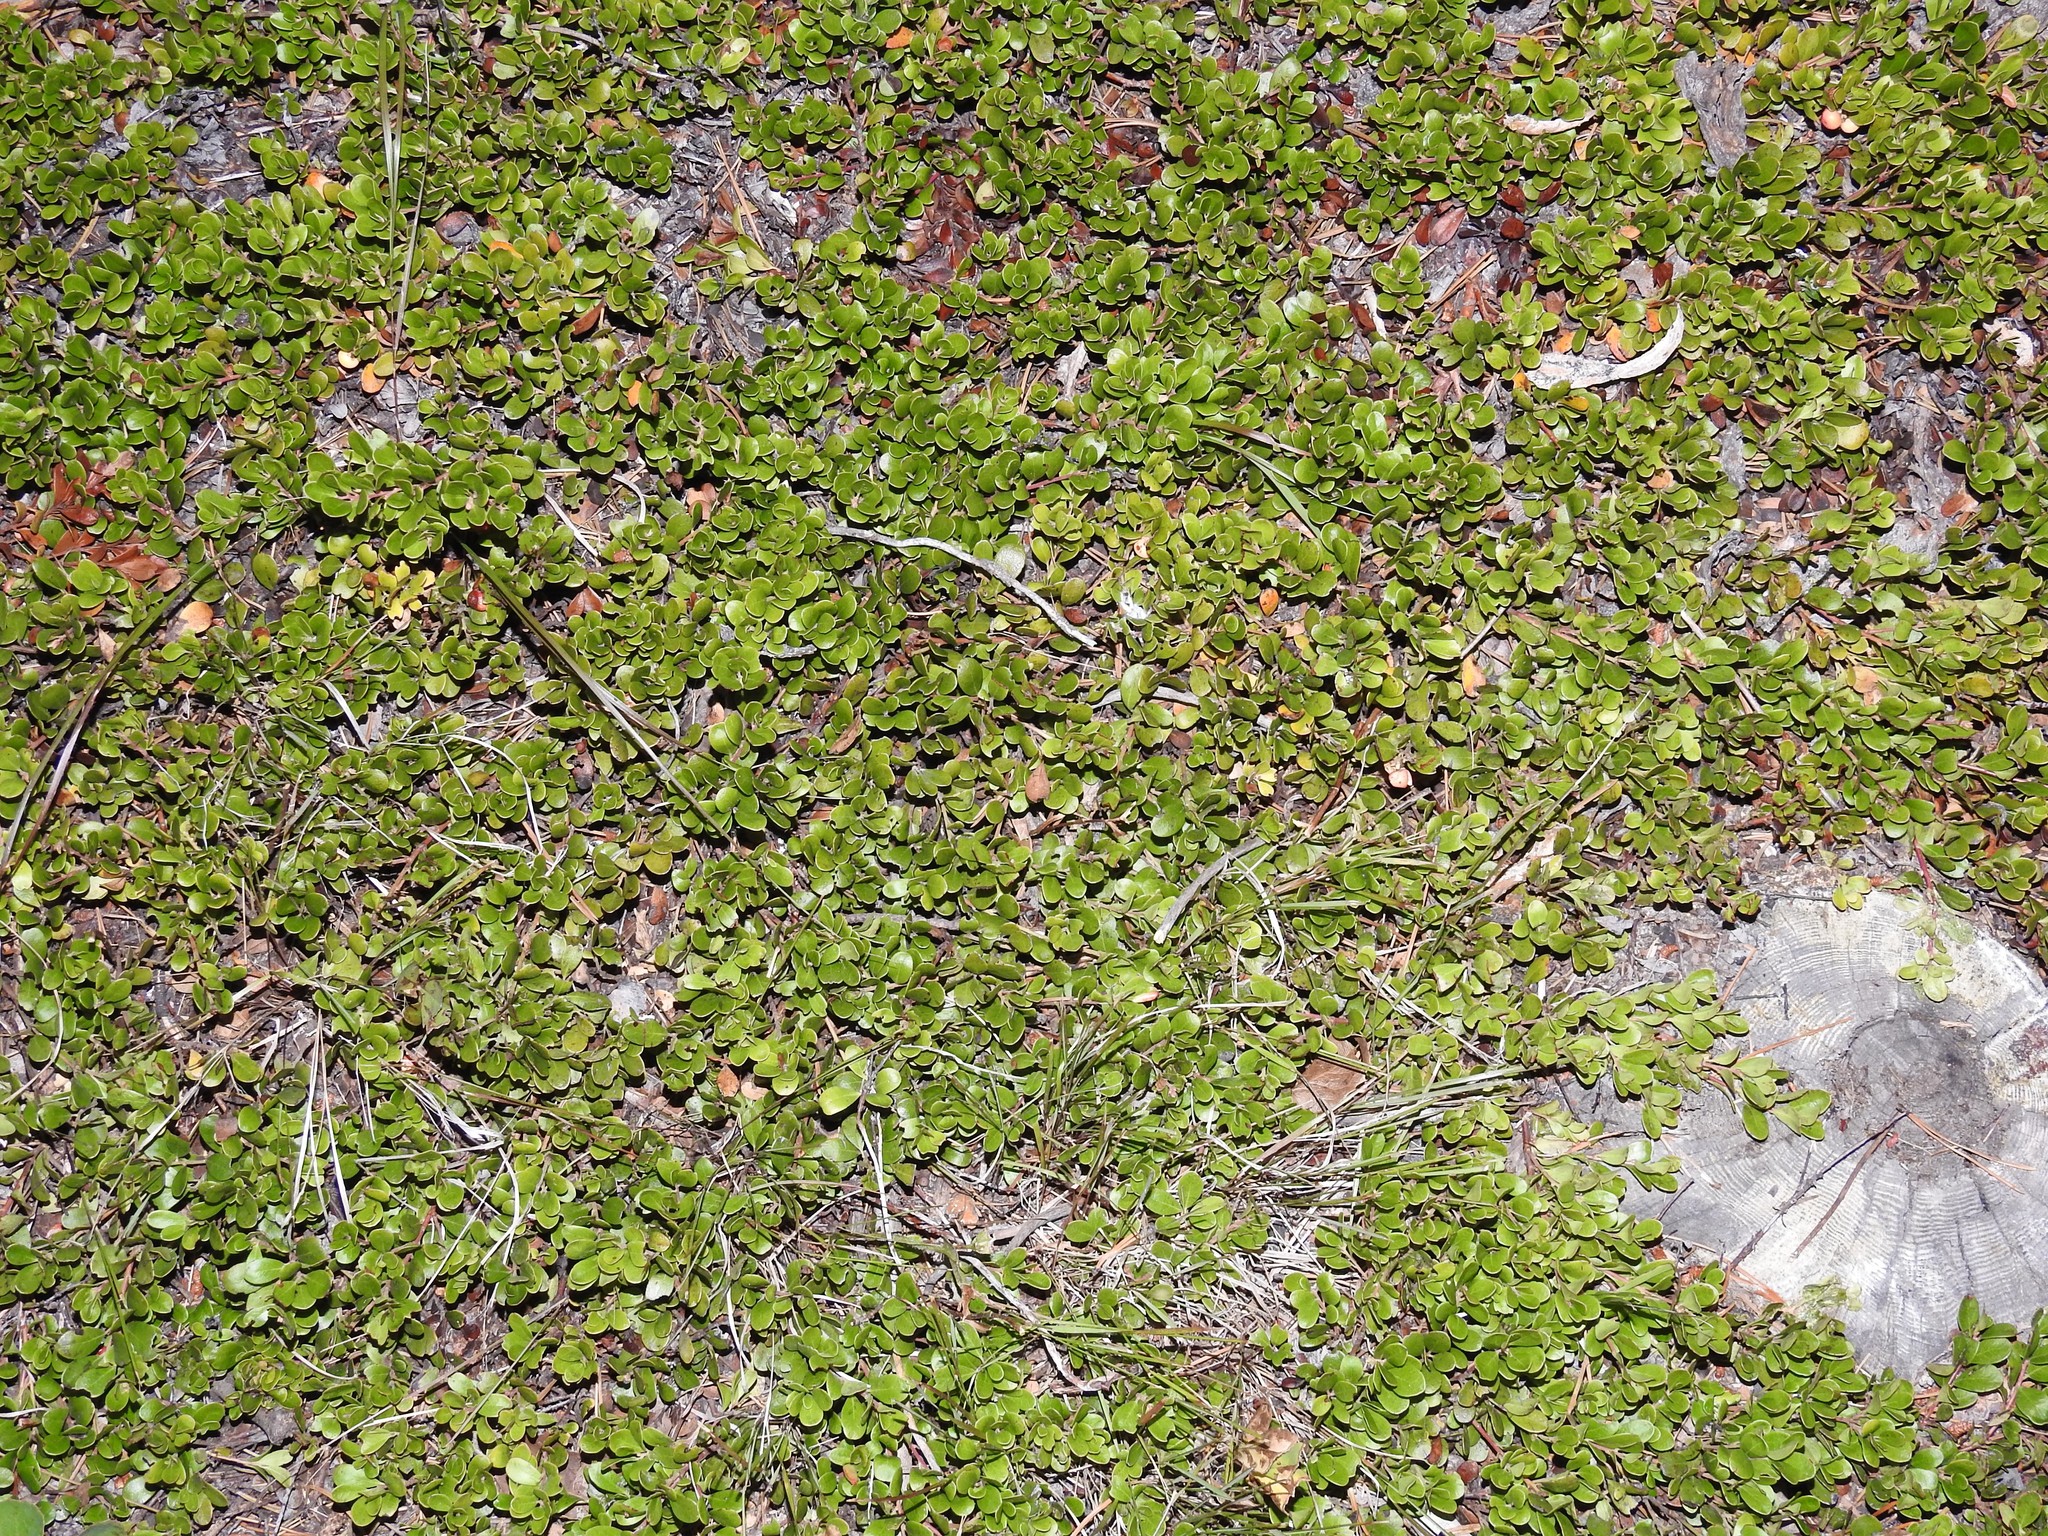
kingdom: Plantae
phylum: Tracheophyta
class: Magnoliopsida
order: Ericales
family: Ericaceae
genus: Arctostaphylos
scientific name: Arctostaphylos uva-ursi
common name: Bearberry
